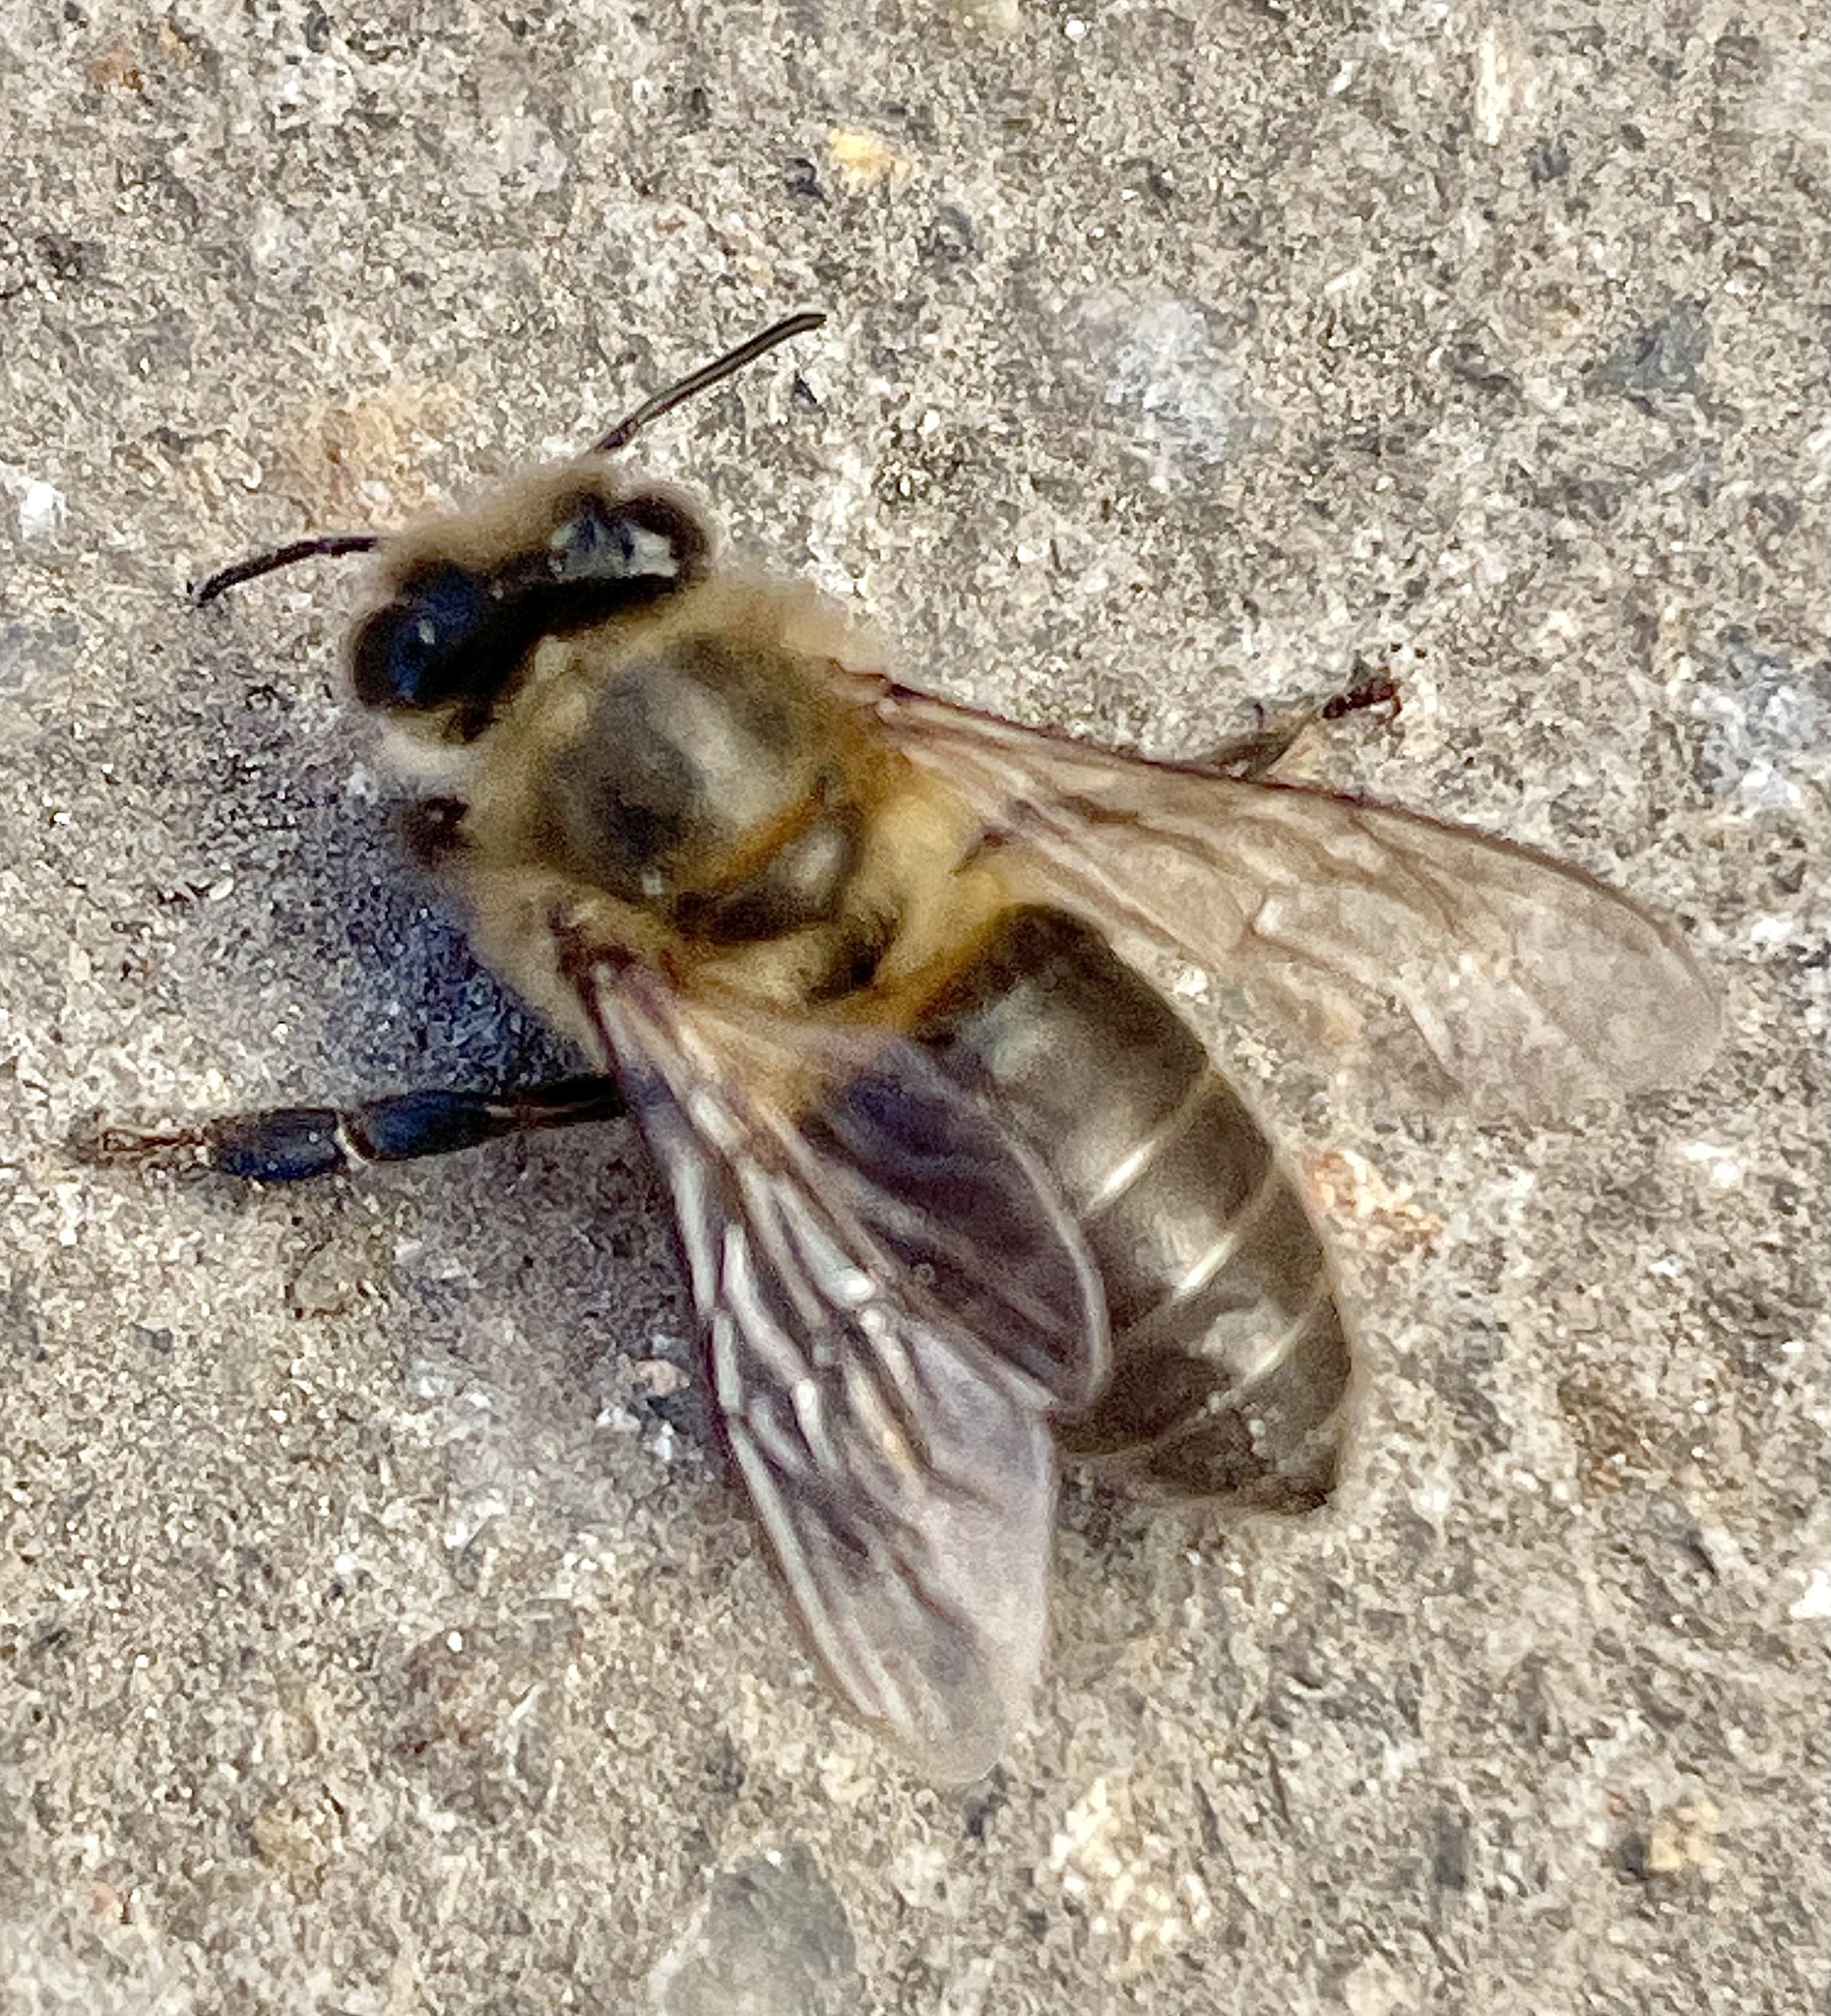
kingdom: Animalia
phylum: Arthropoda
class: Insecta
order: Hymenoptera
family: Apidae
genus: Apis
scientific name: Apis mellifera
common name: Honey bee
